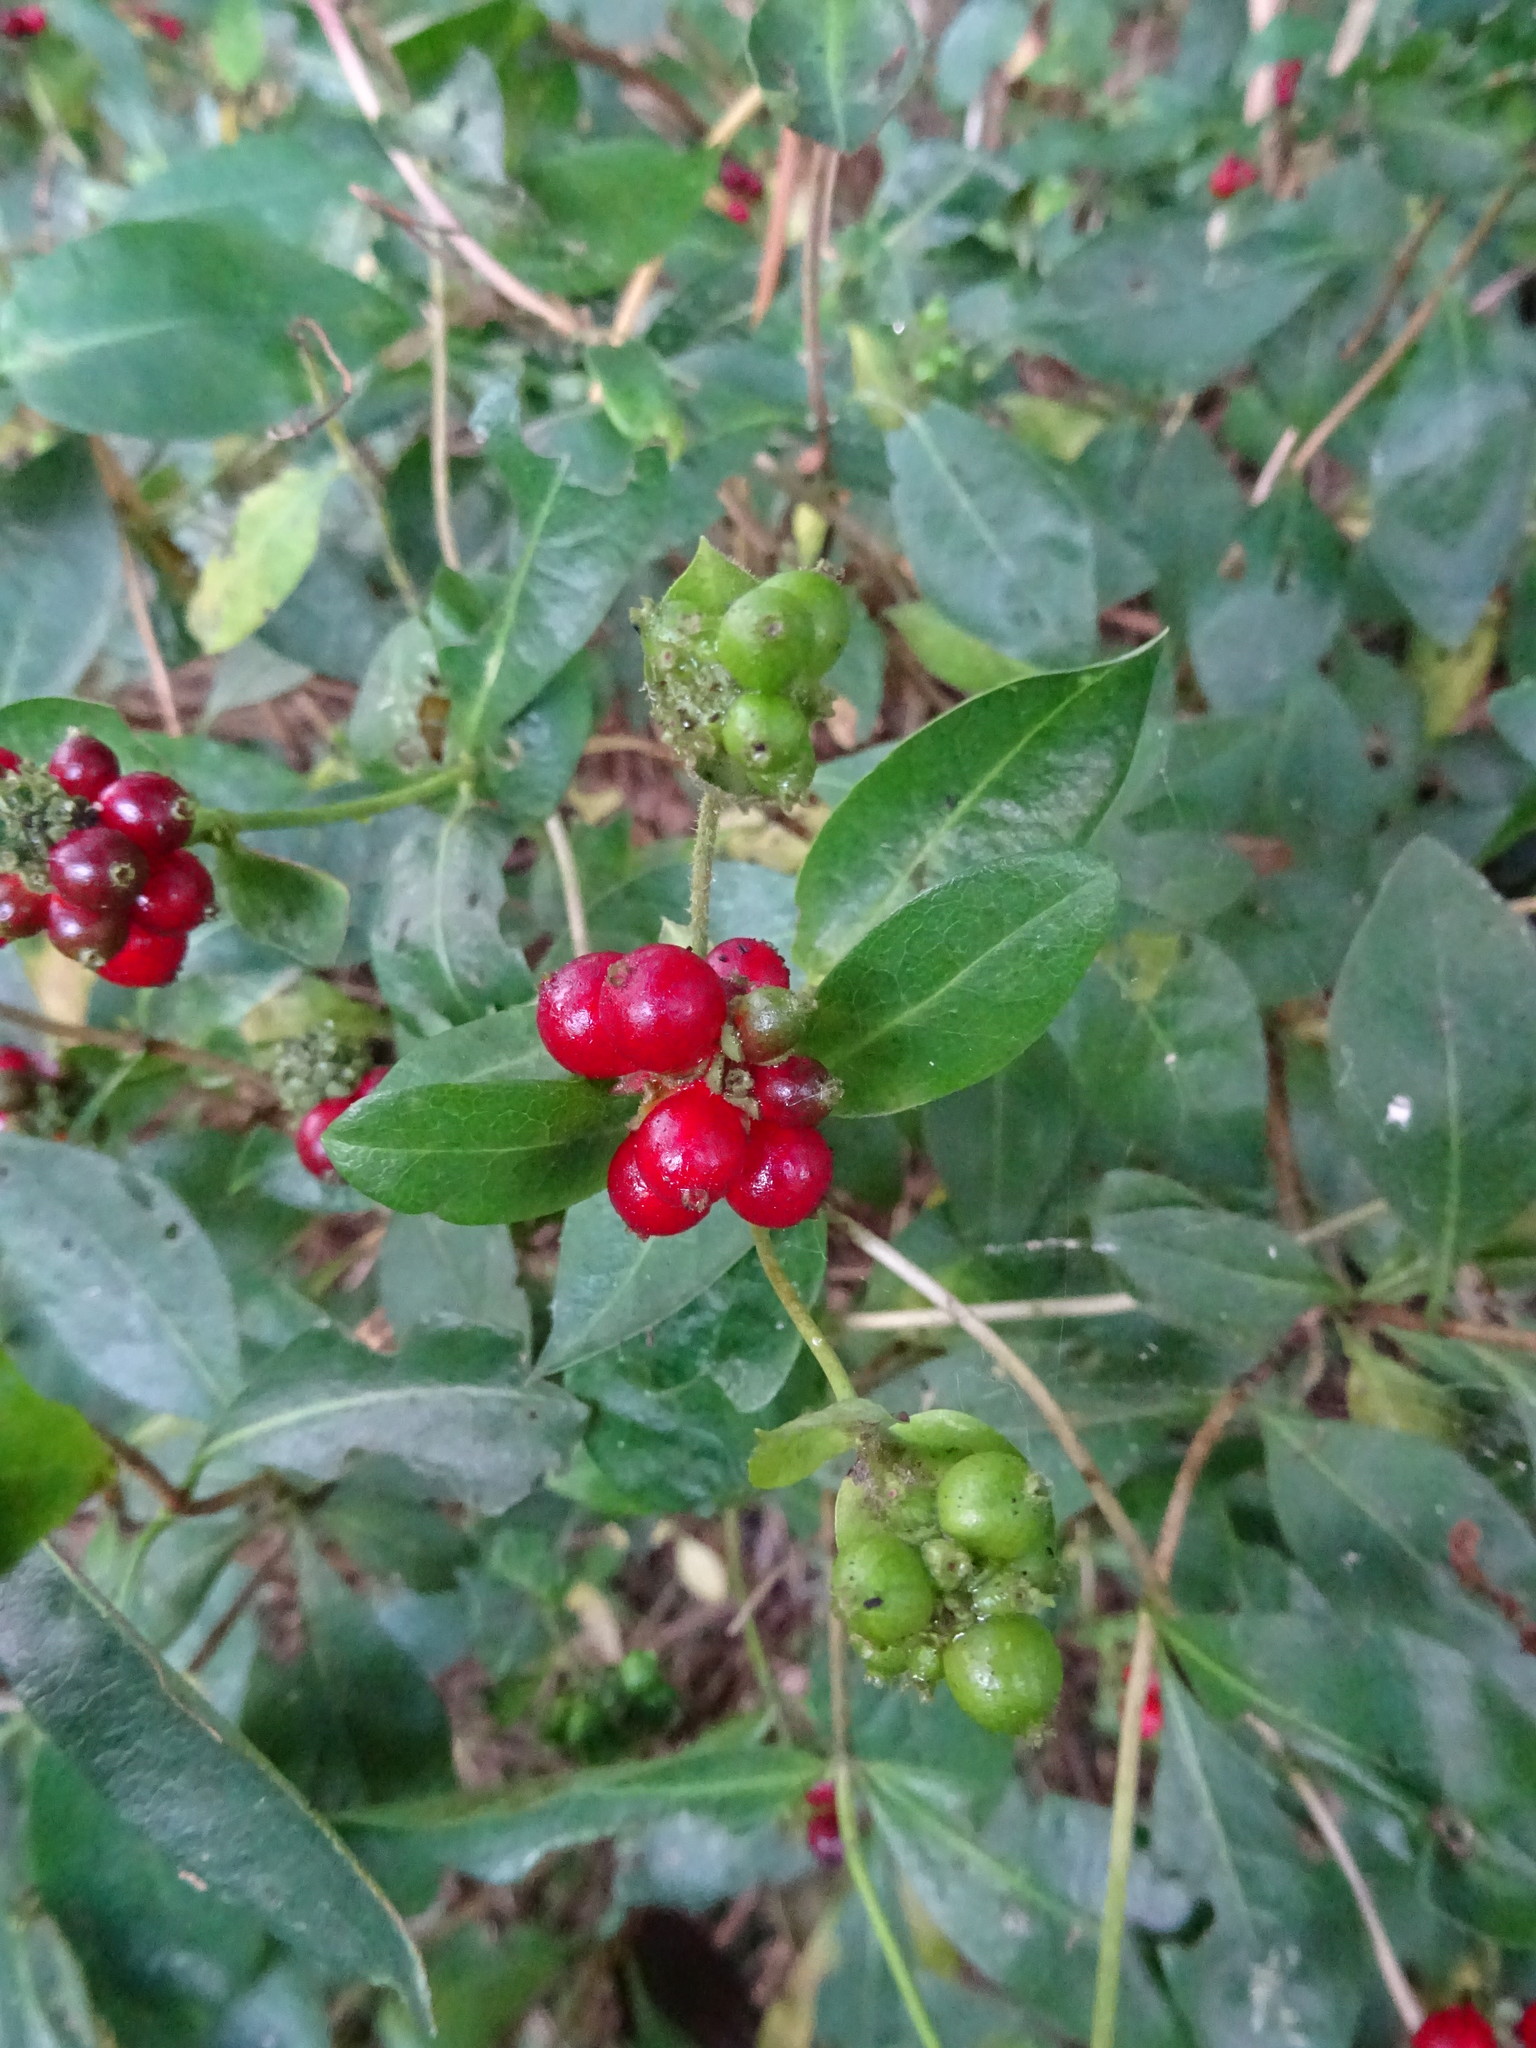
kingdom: Plantae
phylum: Tracheophyta
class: Magnoliopsida
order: Dipsacales
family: Caprifoliaceae
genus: Lonicera
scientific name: Lonicera periclymenum
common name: European honeysuckle
